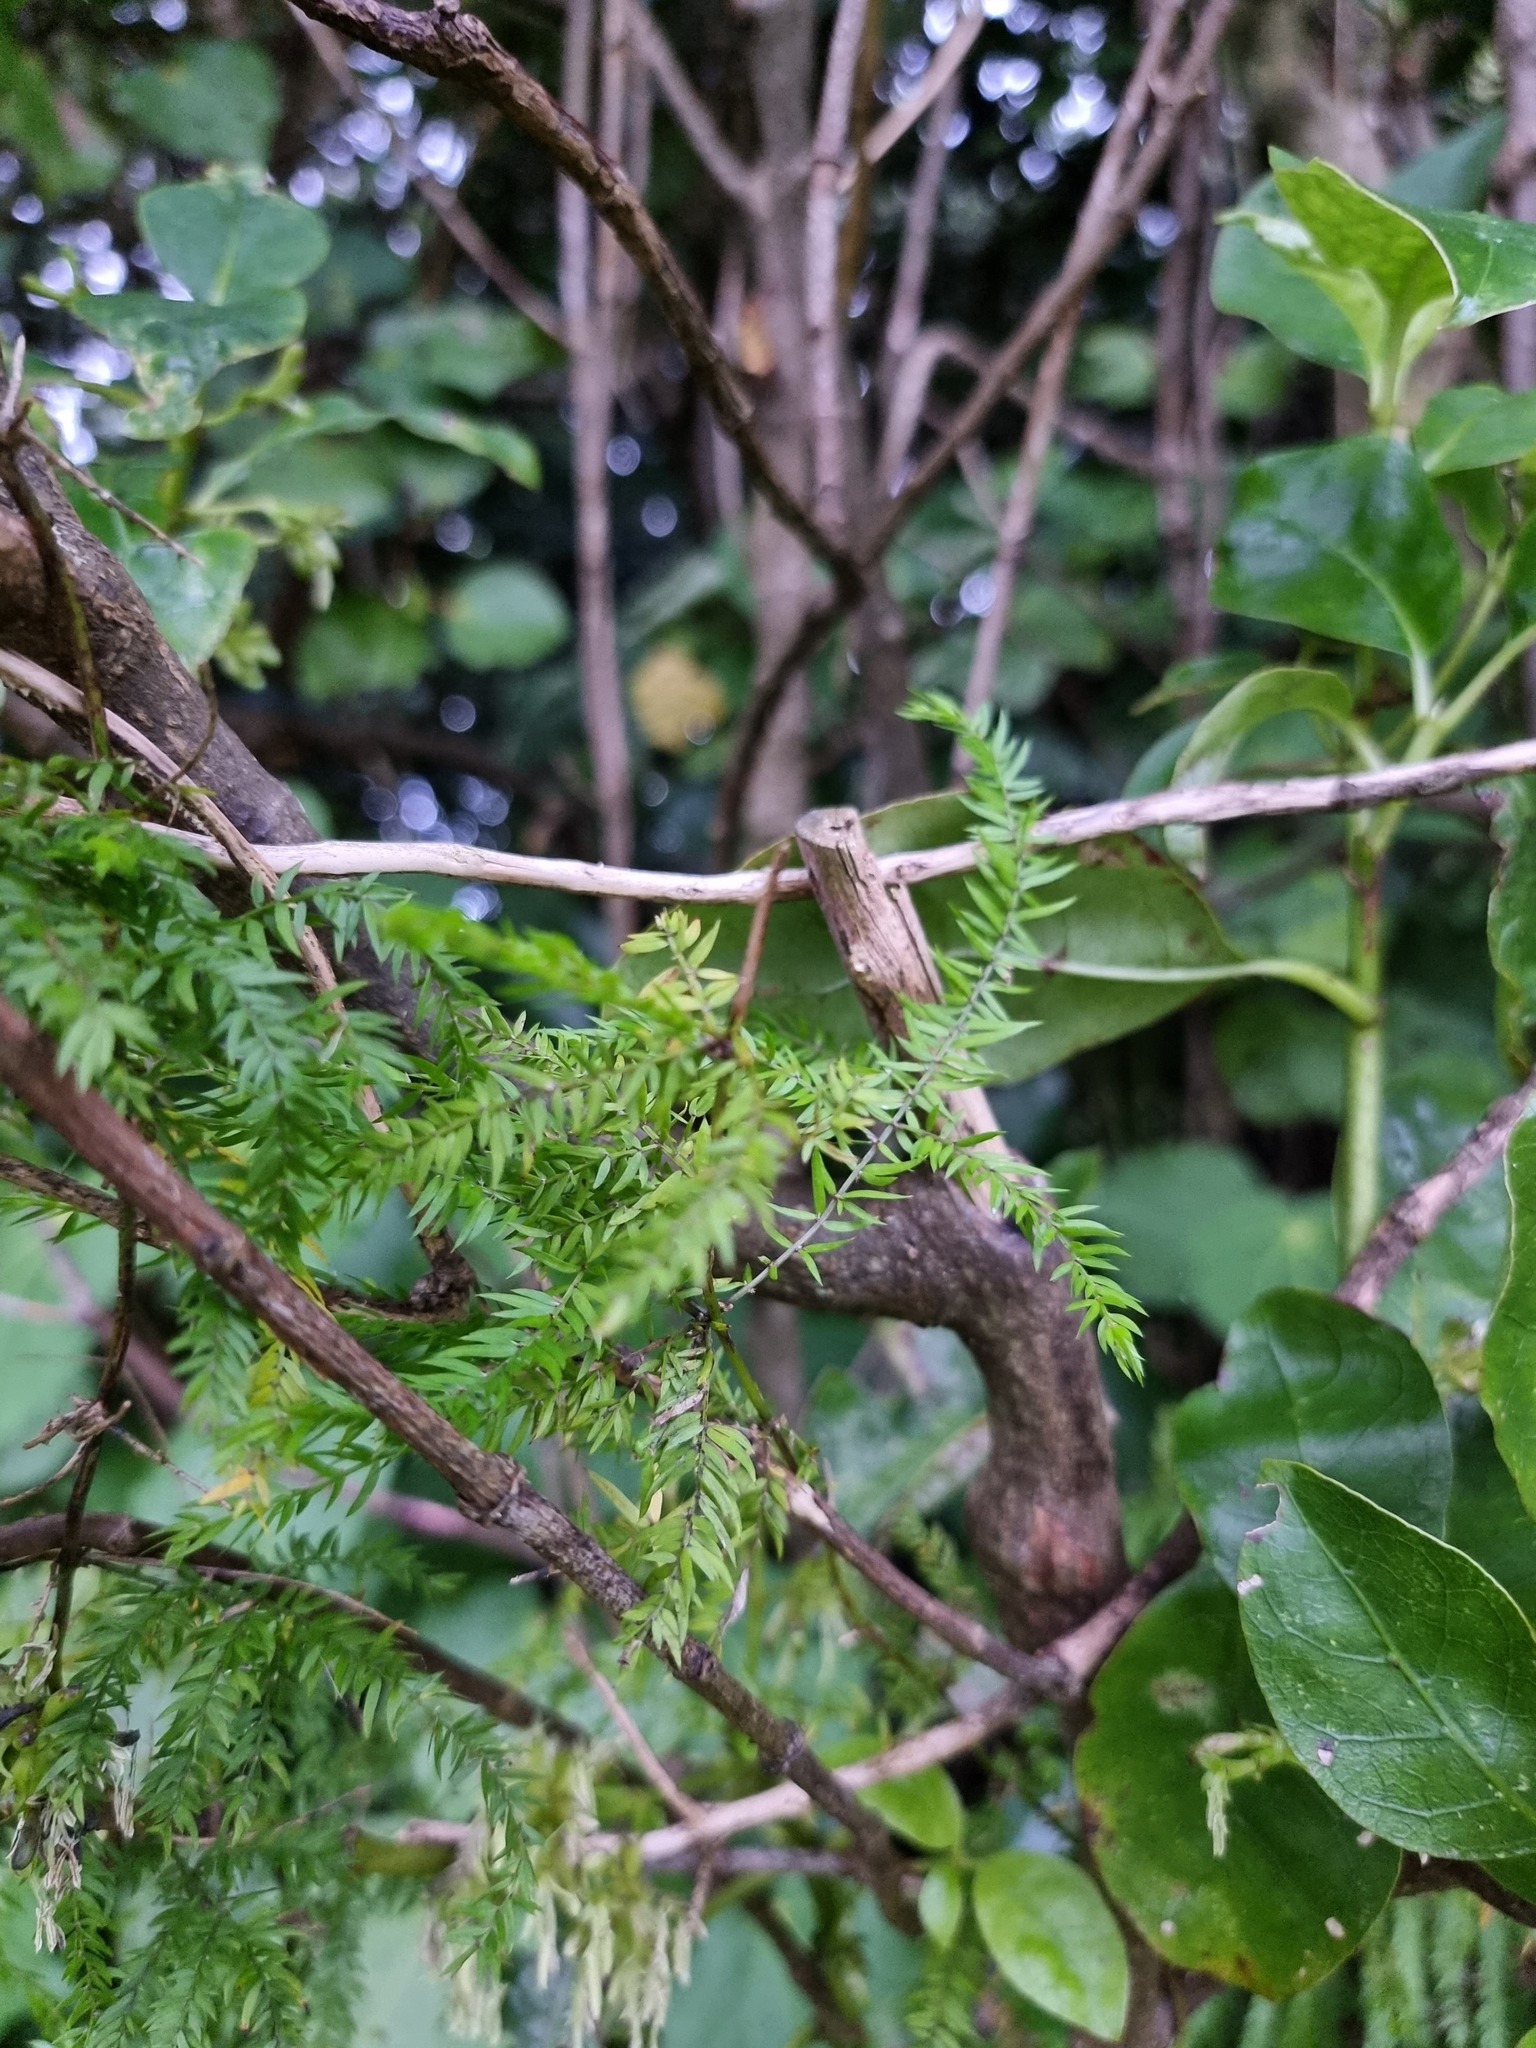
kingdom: Plantae
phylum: Tracheophyta
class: Liliopsida
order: Asparagales
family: Asparagaceae
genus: Asparagus
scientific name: Asparagus scandens
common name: Asparagus-fern
